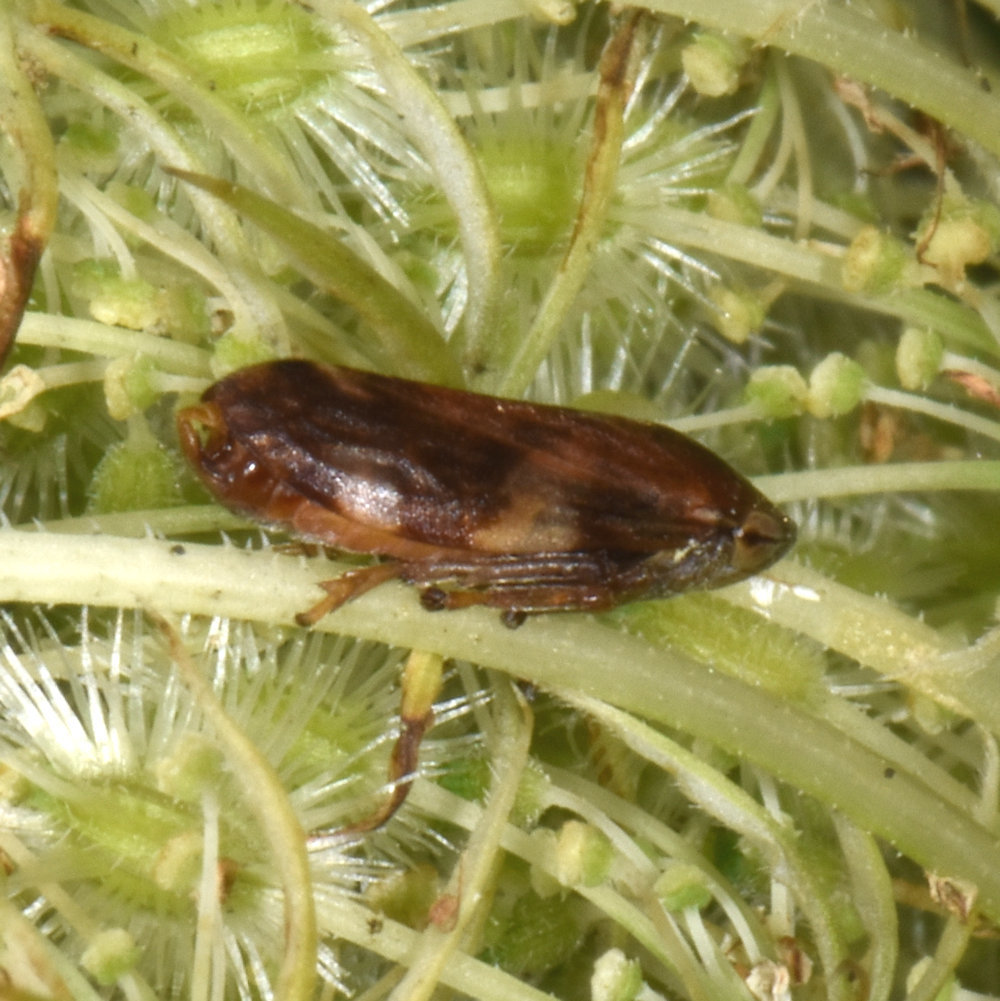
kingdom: Animalia
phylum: Arthropoda
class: Insecta
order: Hemiptera
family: Aphrophoridae
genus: Philaenus
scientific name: Philaenus spumarius
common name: Meadow spittlebug
